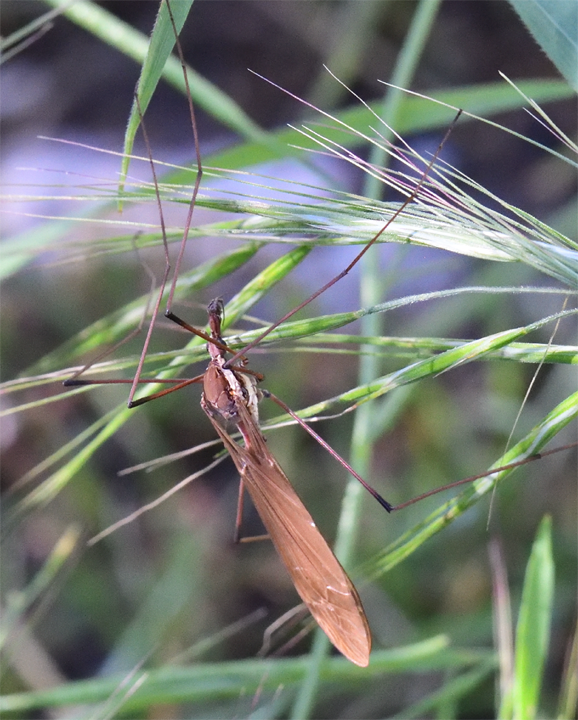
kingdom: Animalia
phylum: Arthropoda
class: Insecta
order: Diptera
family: Tipulidae
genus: Holorusia
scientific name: Holorusia hespera
